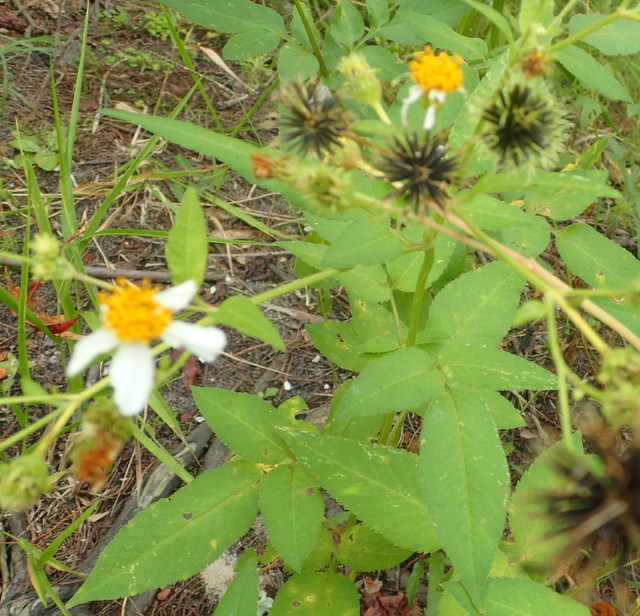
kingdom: Plantae
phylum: Tracheophyta
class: Magnoliopsida
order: Asterales
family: Asteraceae
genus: Bidens
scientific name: Bidens alba
